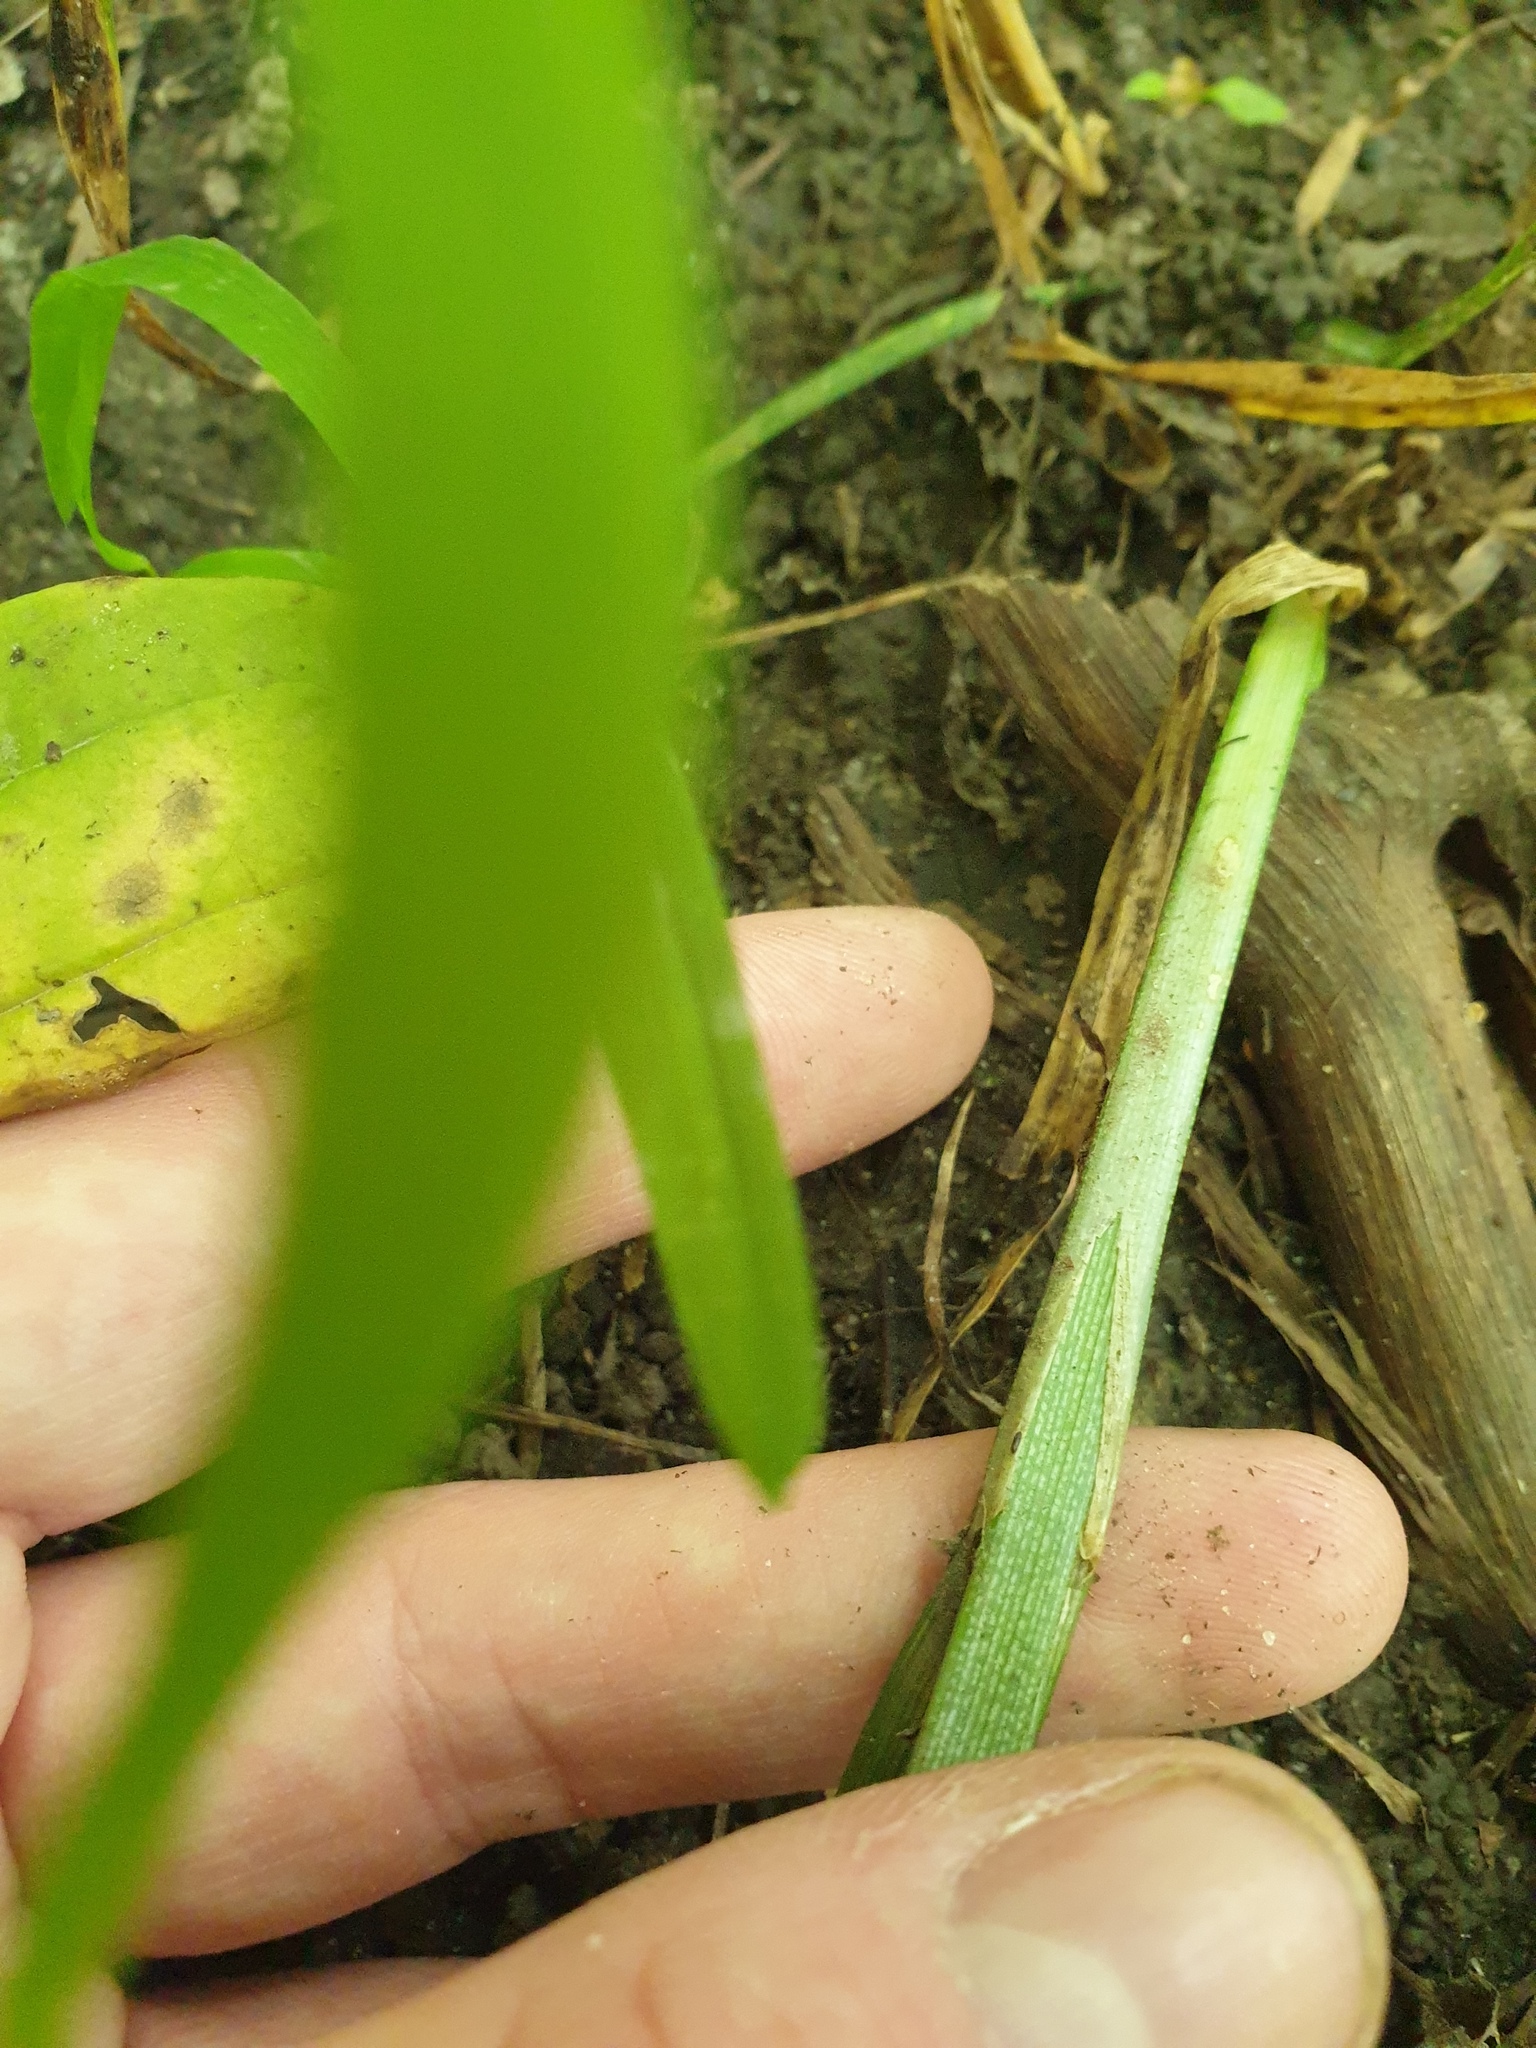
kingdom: Plantae
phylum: Tracheophyta
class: Liliopsida
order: Poales
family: Cyperaceae
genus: Carex
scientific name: Carex sparganioides
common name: Burreed sedge
